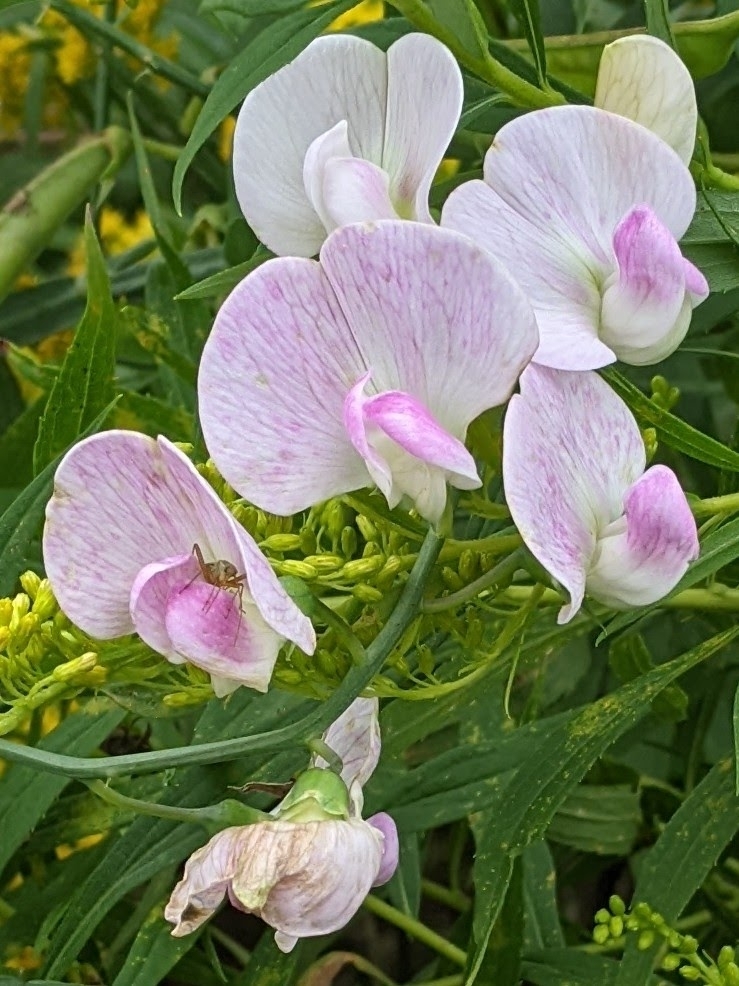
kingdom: Plantae
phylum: Tracheophyta
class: Magnoliopsida
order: Fabales
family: Fabaceae
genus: Lathyrus
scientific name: Lathyrus latifolius
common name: Perennial pea
